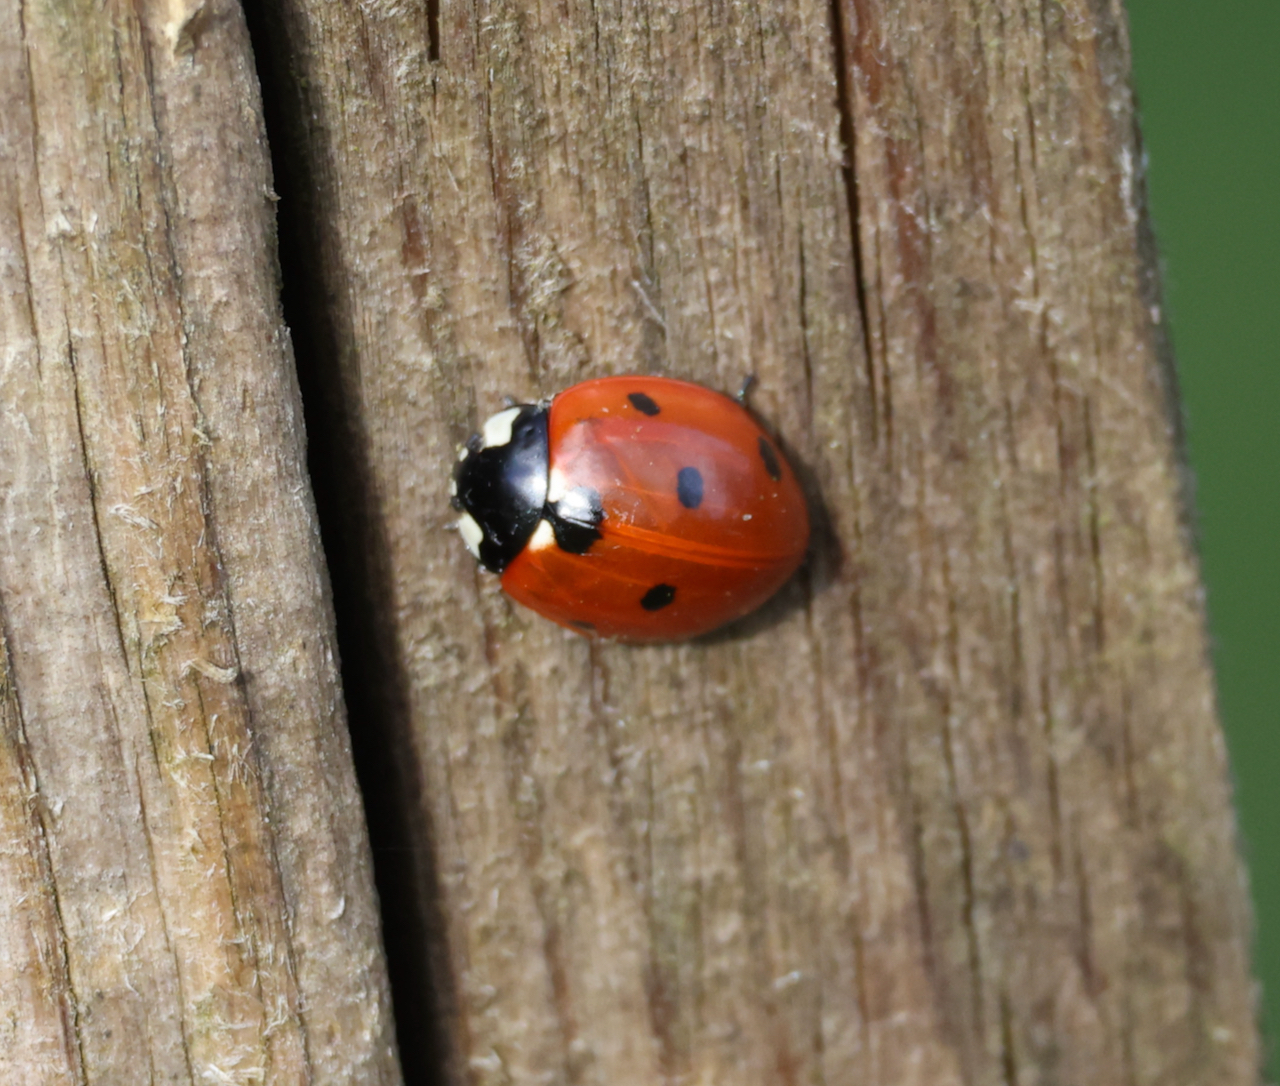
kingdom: Animalia
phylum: Arthropoda
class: Insecta
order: Coleoptera
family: Coccinellidae
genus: Coccinella
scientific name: Coccinella septempunctata
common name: Sevenspotted lady beetle
